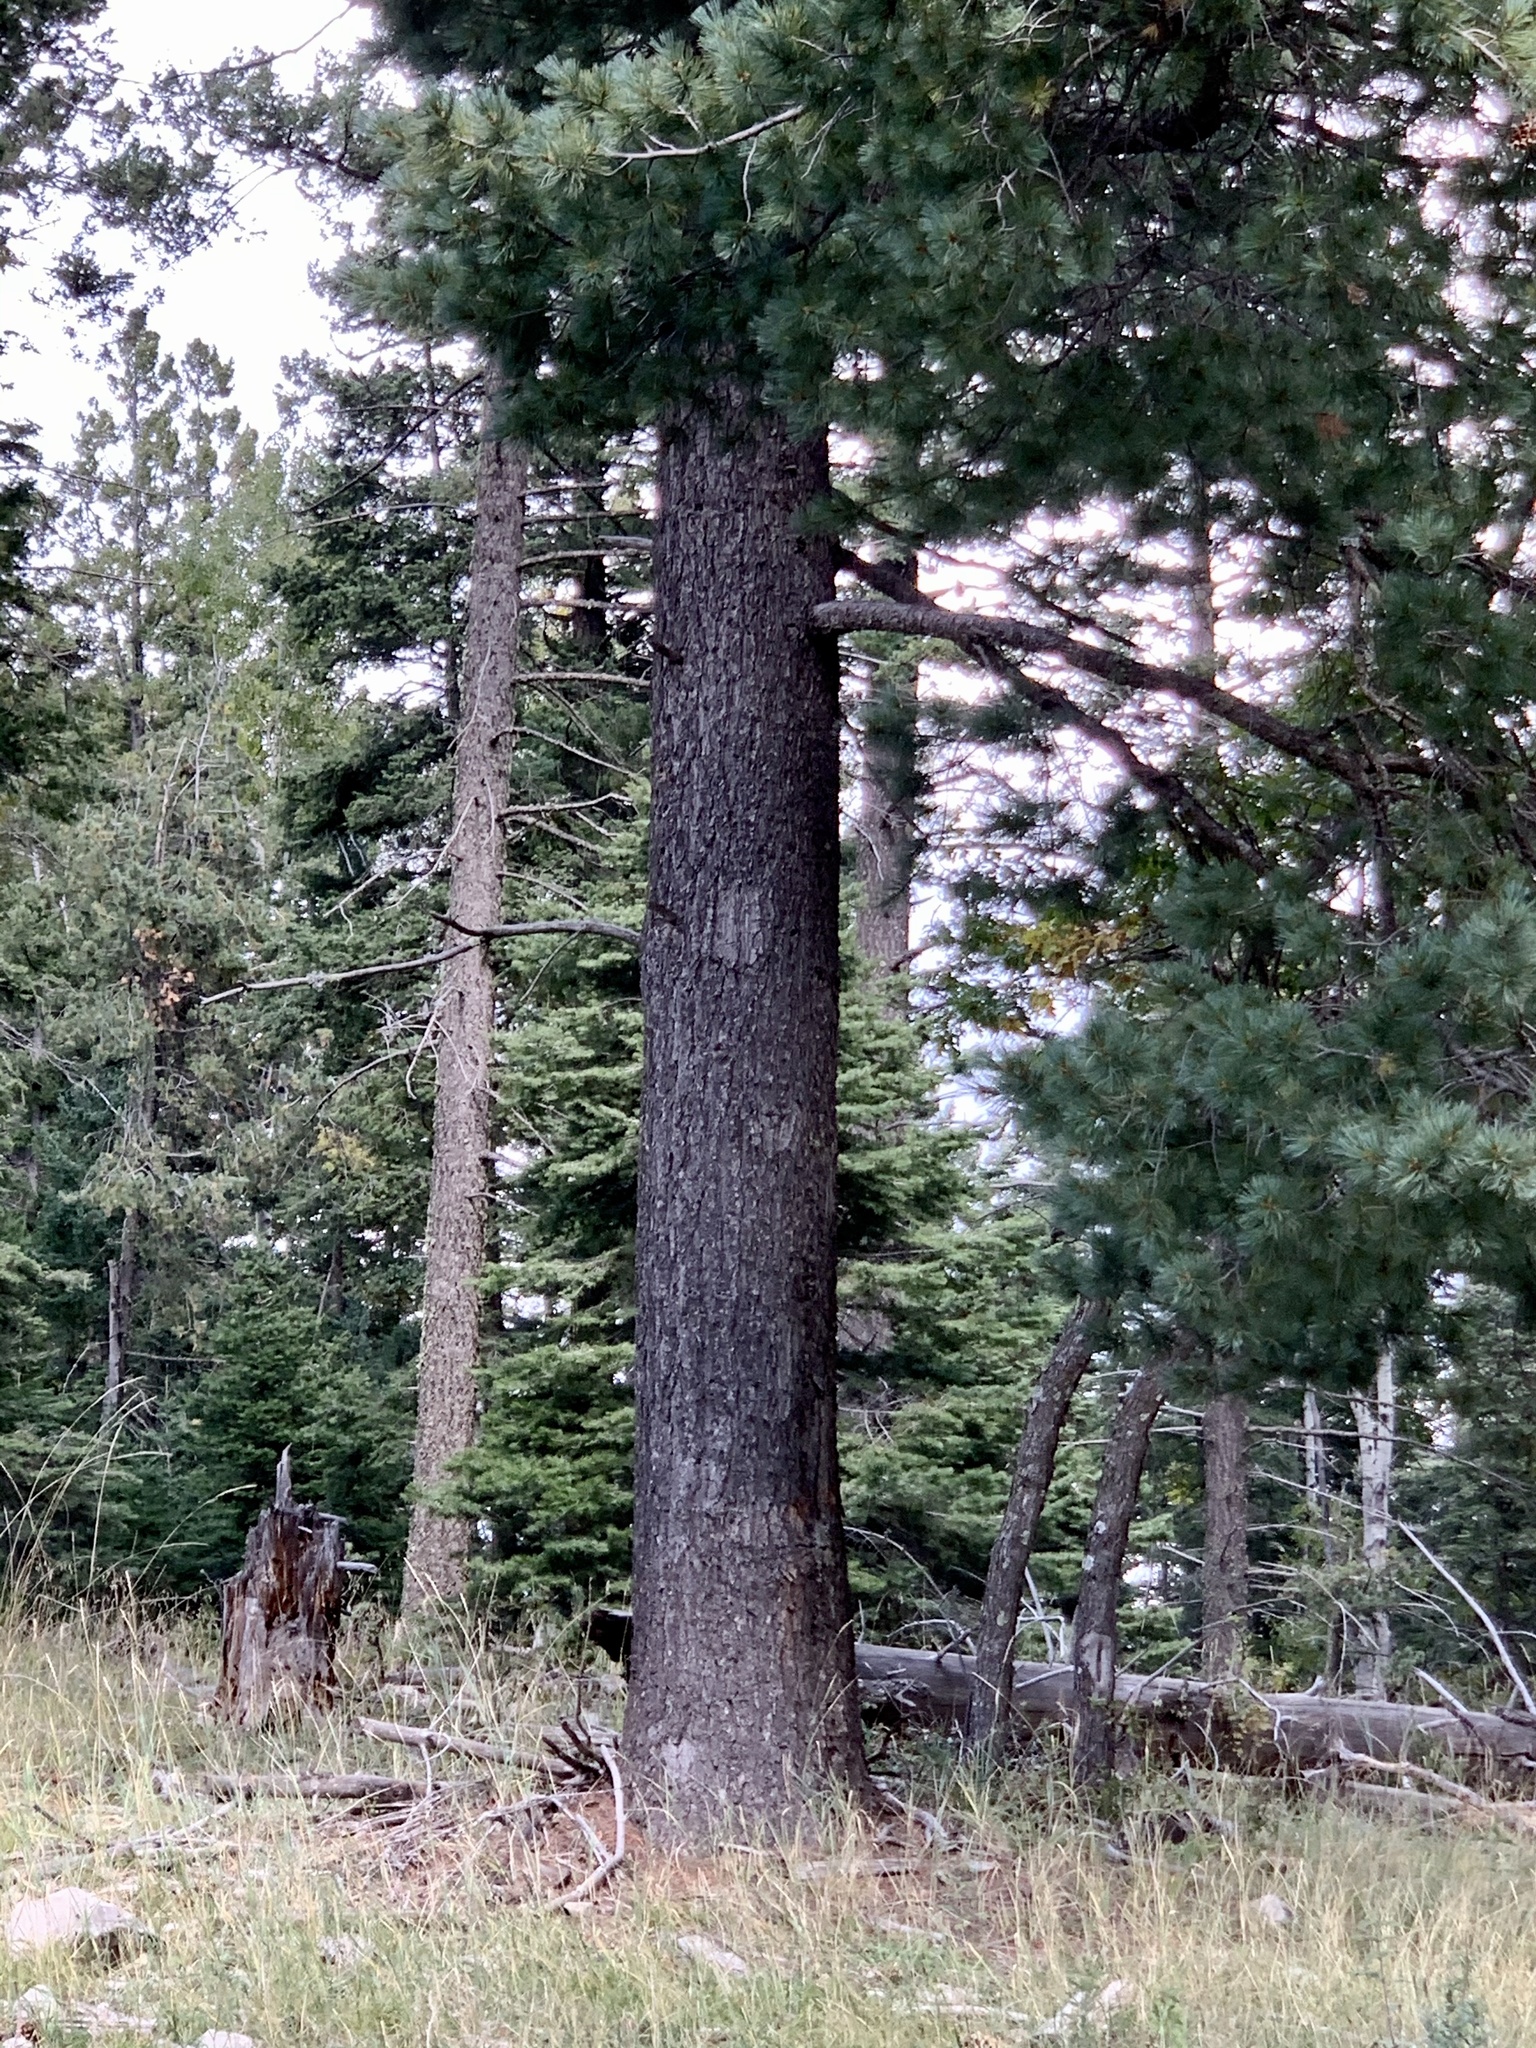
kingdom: Plantae
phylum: Tracheophyta
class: Pinopsida
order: Pinales
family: Pinaceae
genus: Pinus
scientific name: Pinus strobiformis
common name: Southwestern white pine
